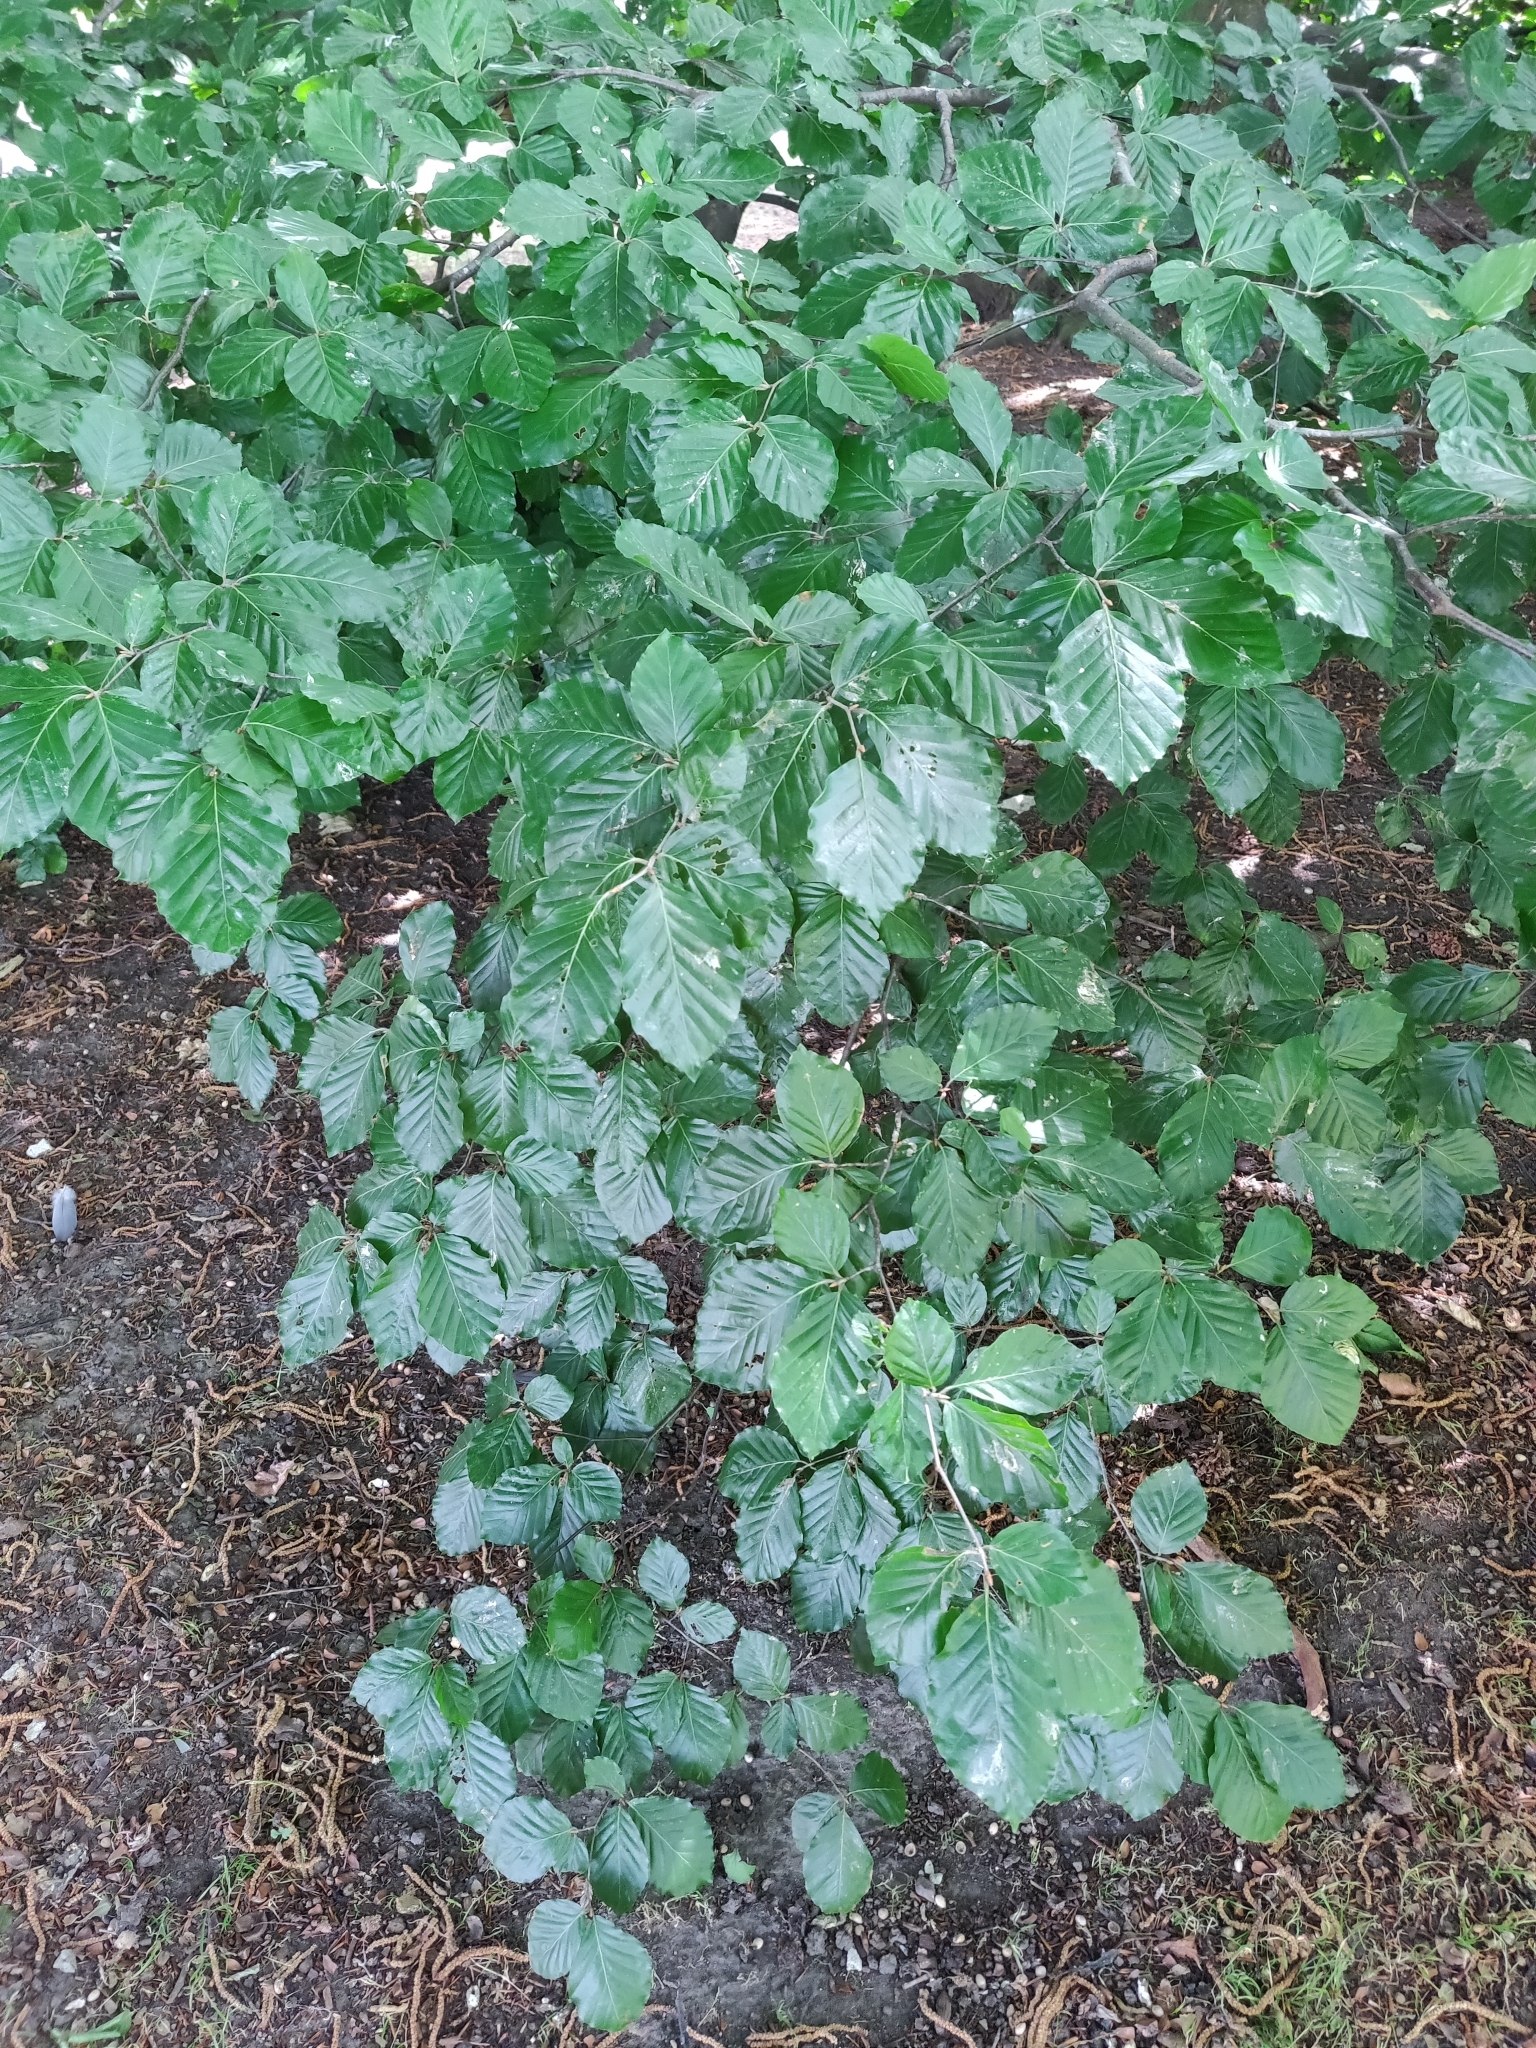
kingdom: Plantae
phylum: Tracheophyta
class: Magnoliopsida
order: Fagales
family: Fagaceae
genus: Fagus
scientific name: Fagus sylvatica
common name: Beech
